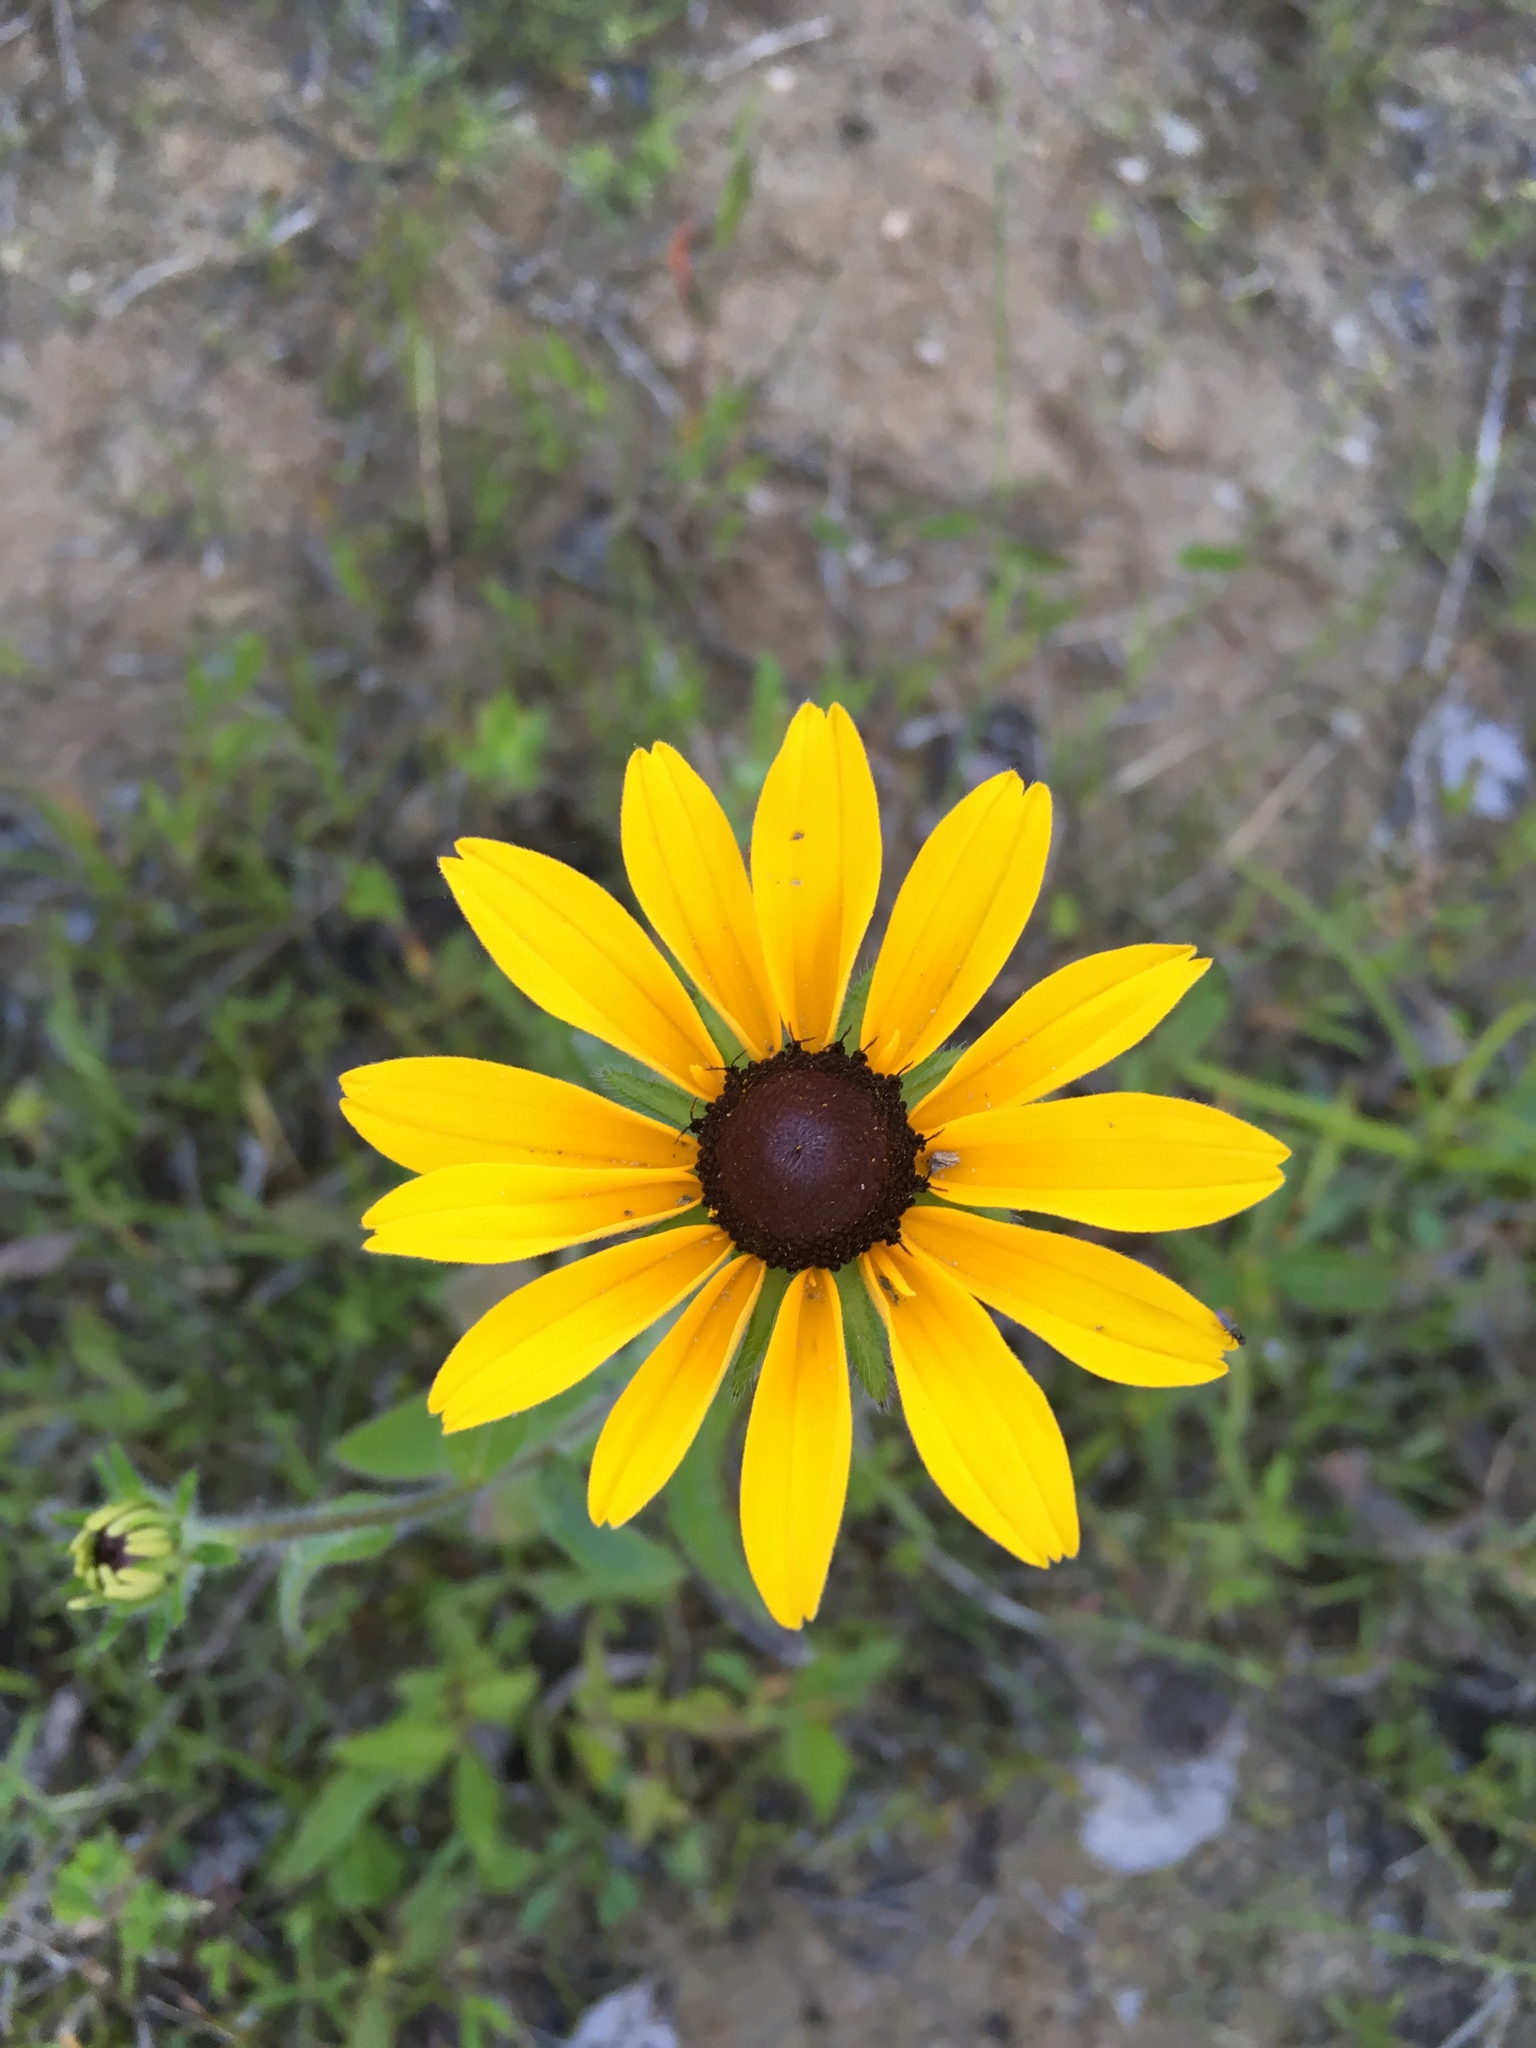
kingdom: Plantae
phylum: Tracheophyta
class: Magnoliopsida
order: Asterales
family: Asteraceae
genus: Rudbeckia
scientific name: Rudbeckia hirta
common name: Black-eyed-susan
